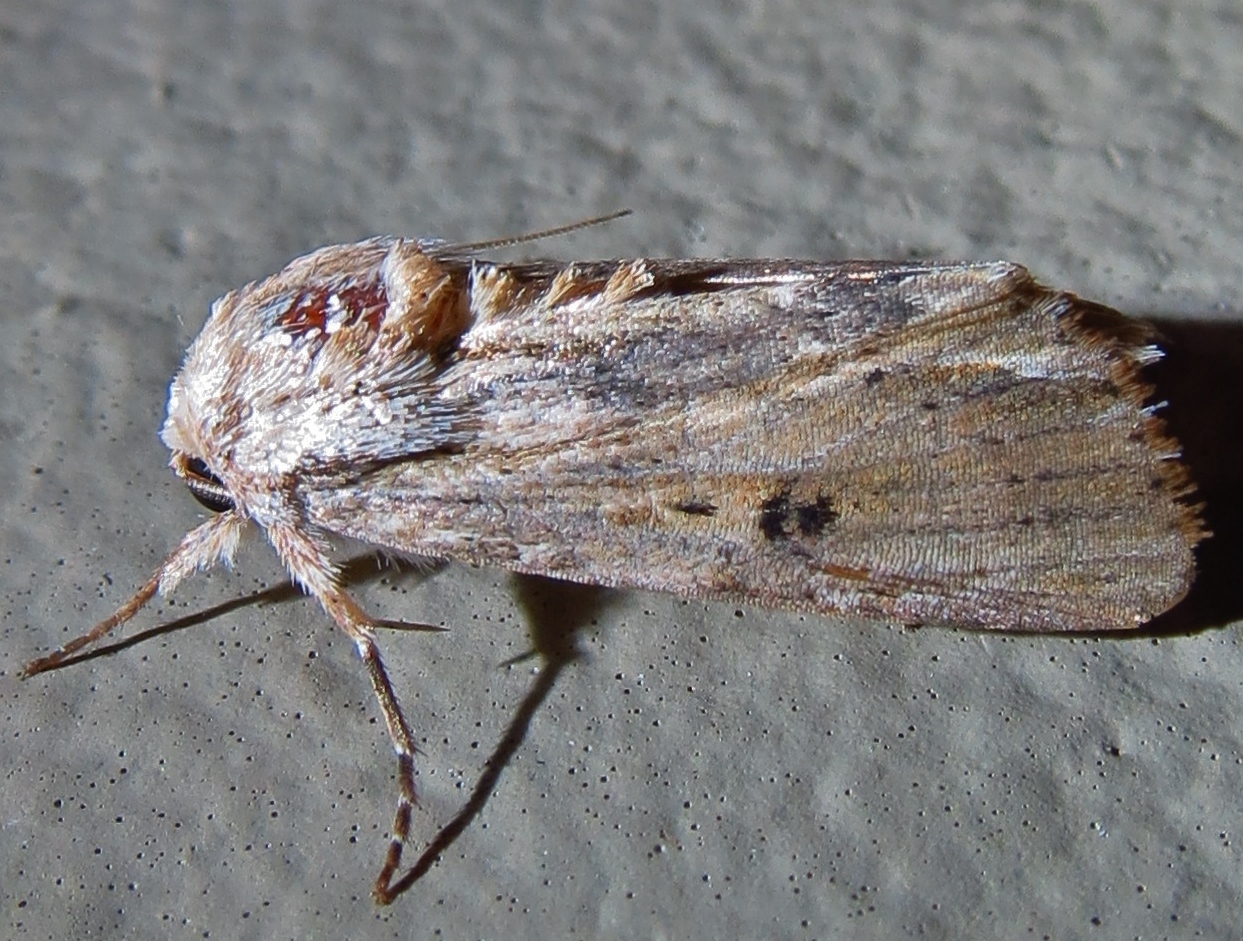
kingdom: Animalia
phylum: Arthropoda
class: Insecta
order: Lepidoptera
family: Noctuidae
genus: Spodoptera
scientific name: Spodoptera eridania
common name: Southern army worm
